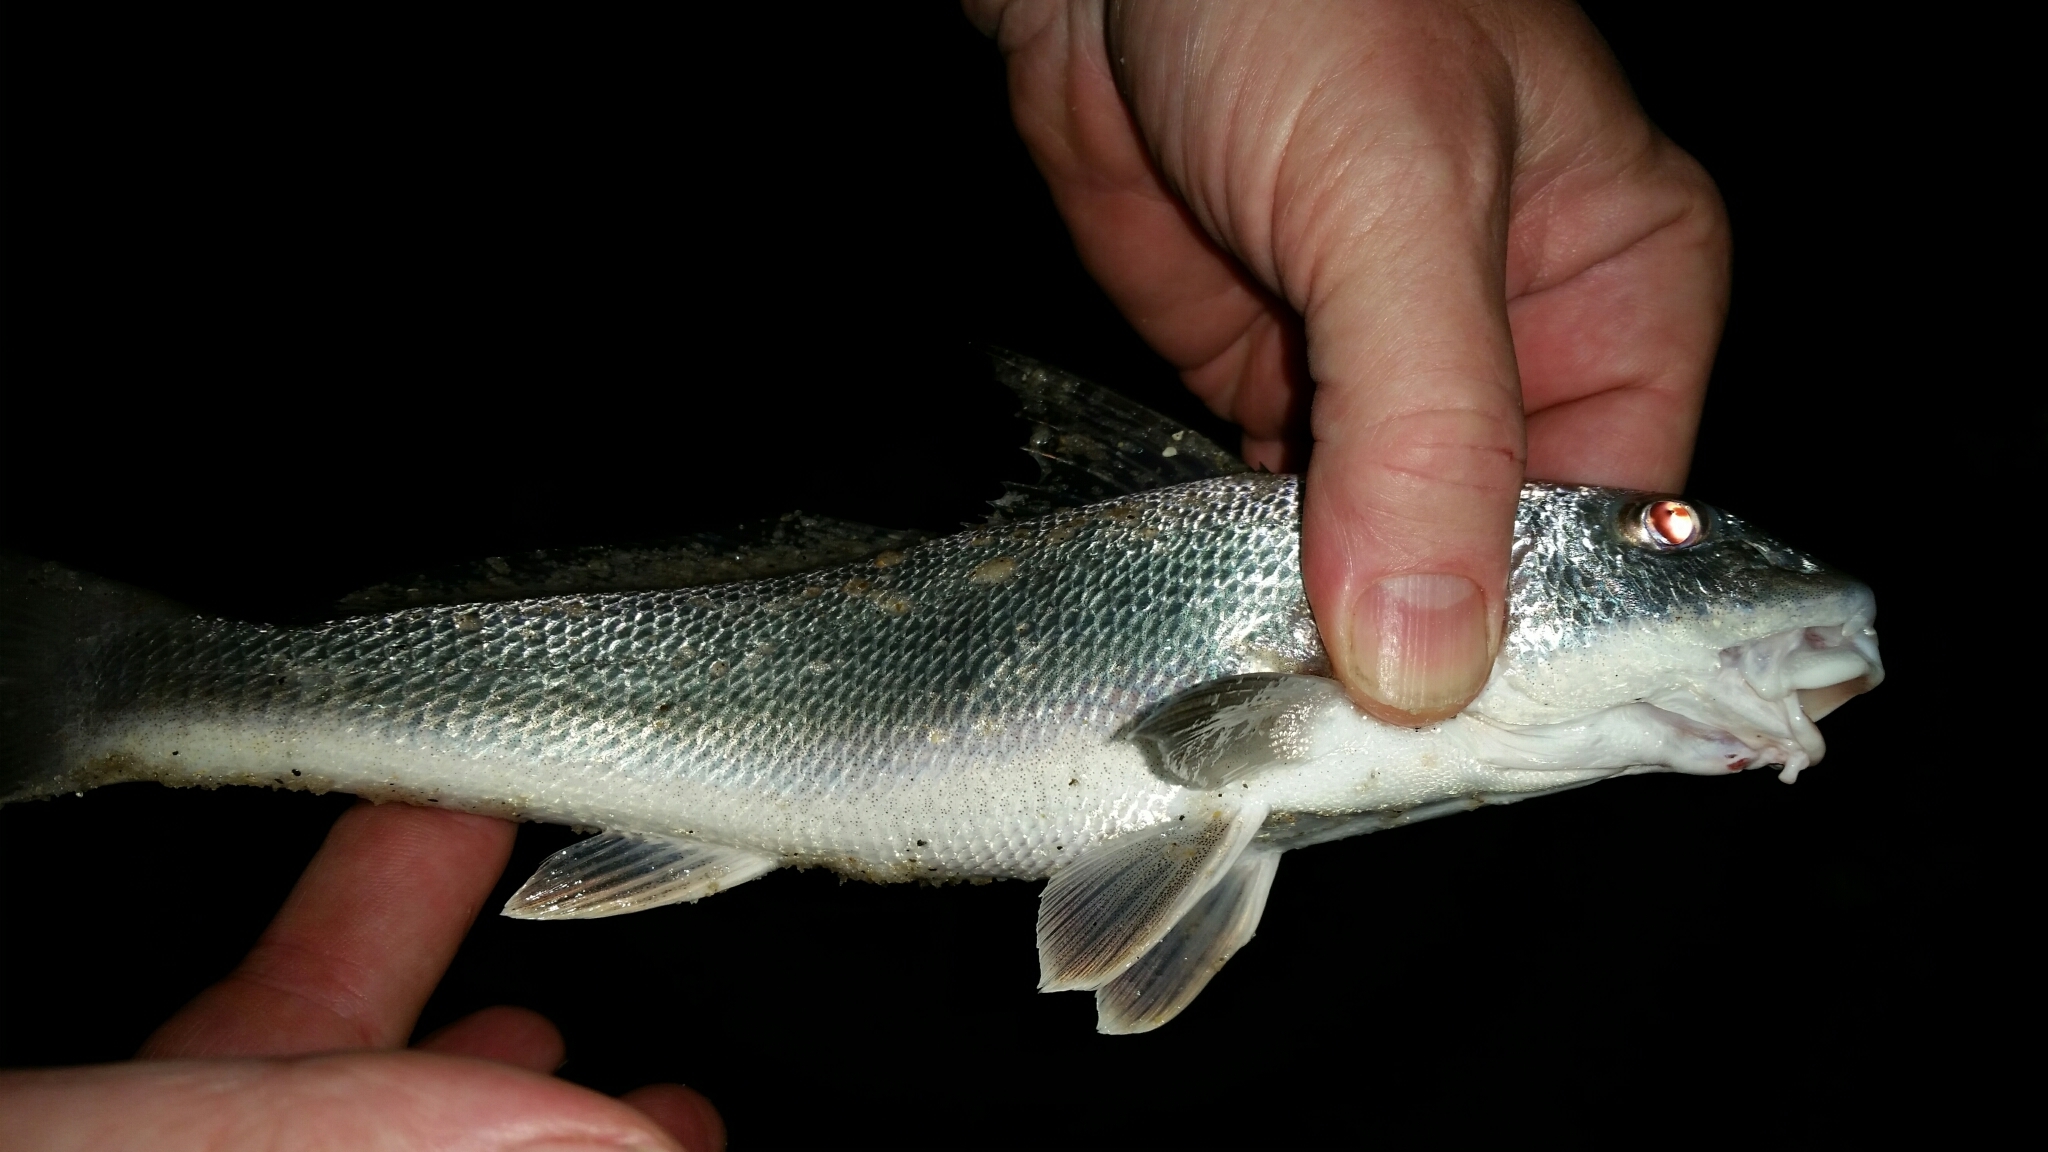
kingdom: Animalia
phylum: Chordata
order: Perciformes
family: Sciaenidae
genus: Menticirrhus
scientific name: Menticirrhus americanus
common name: Southern kingfish
